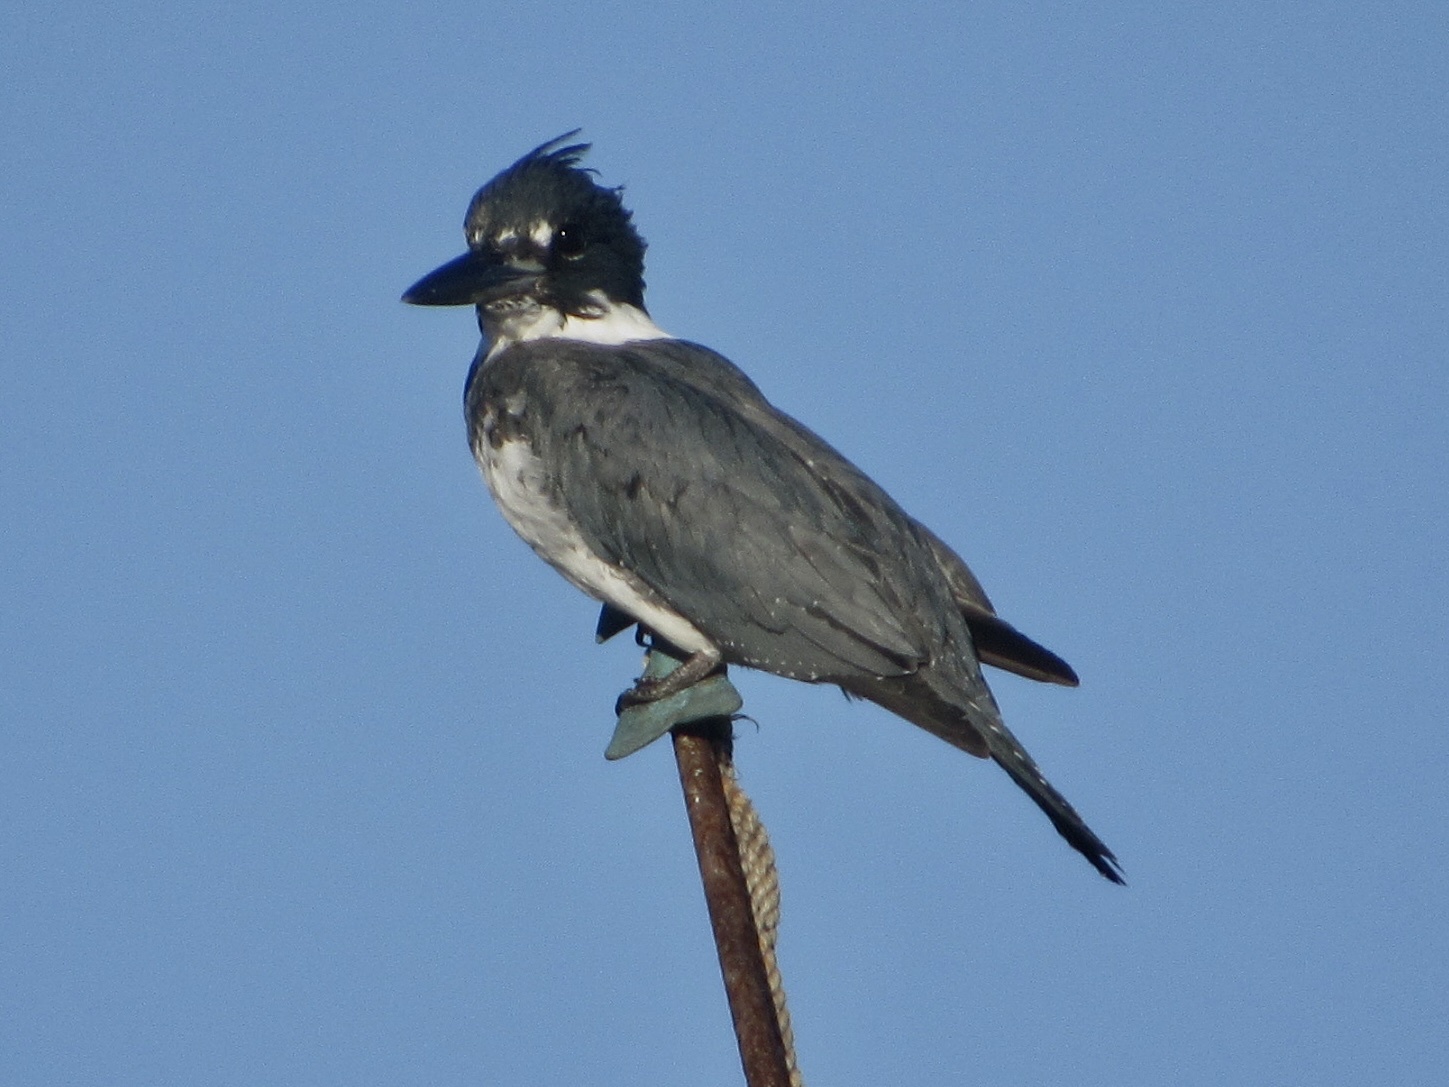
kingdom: Animalia
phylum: Chordata
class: Aves
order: Coraciiformes
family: Alcedinidae
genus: Megaceryle
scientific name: Megaceryle alcyon
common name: Belted kingfisher
